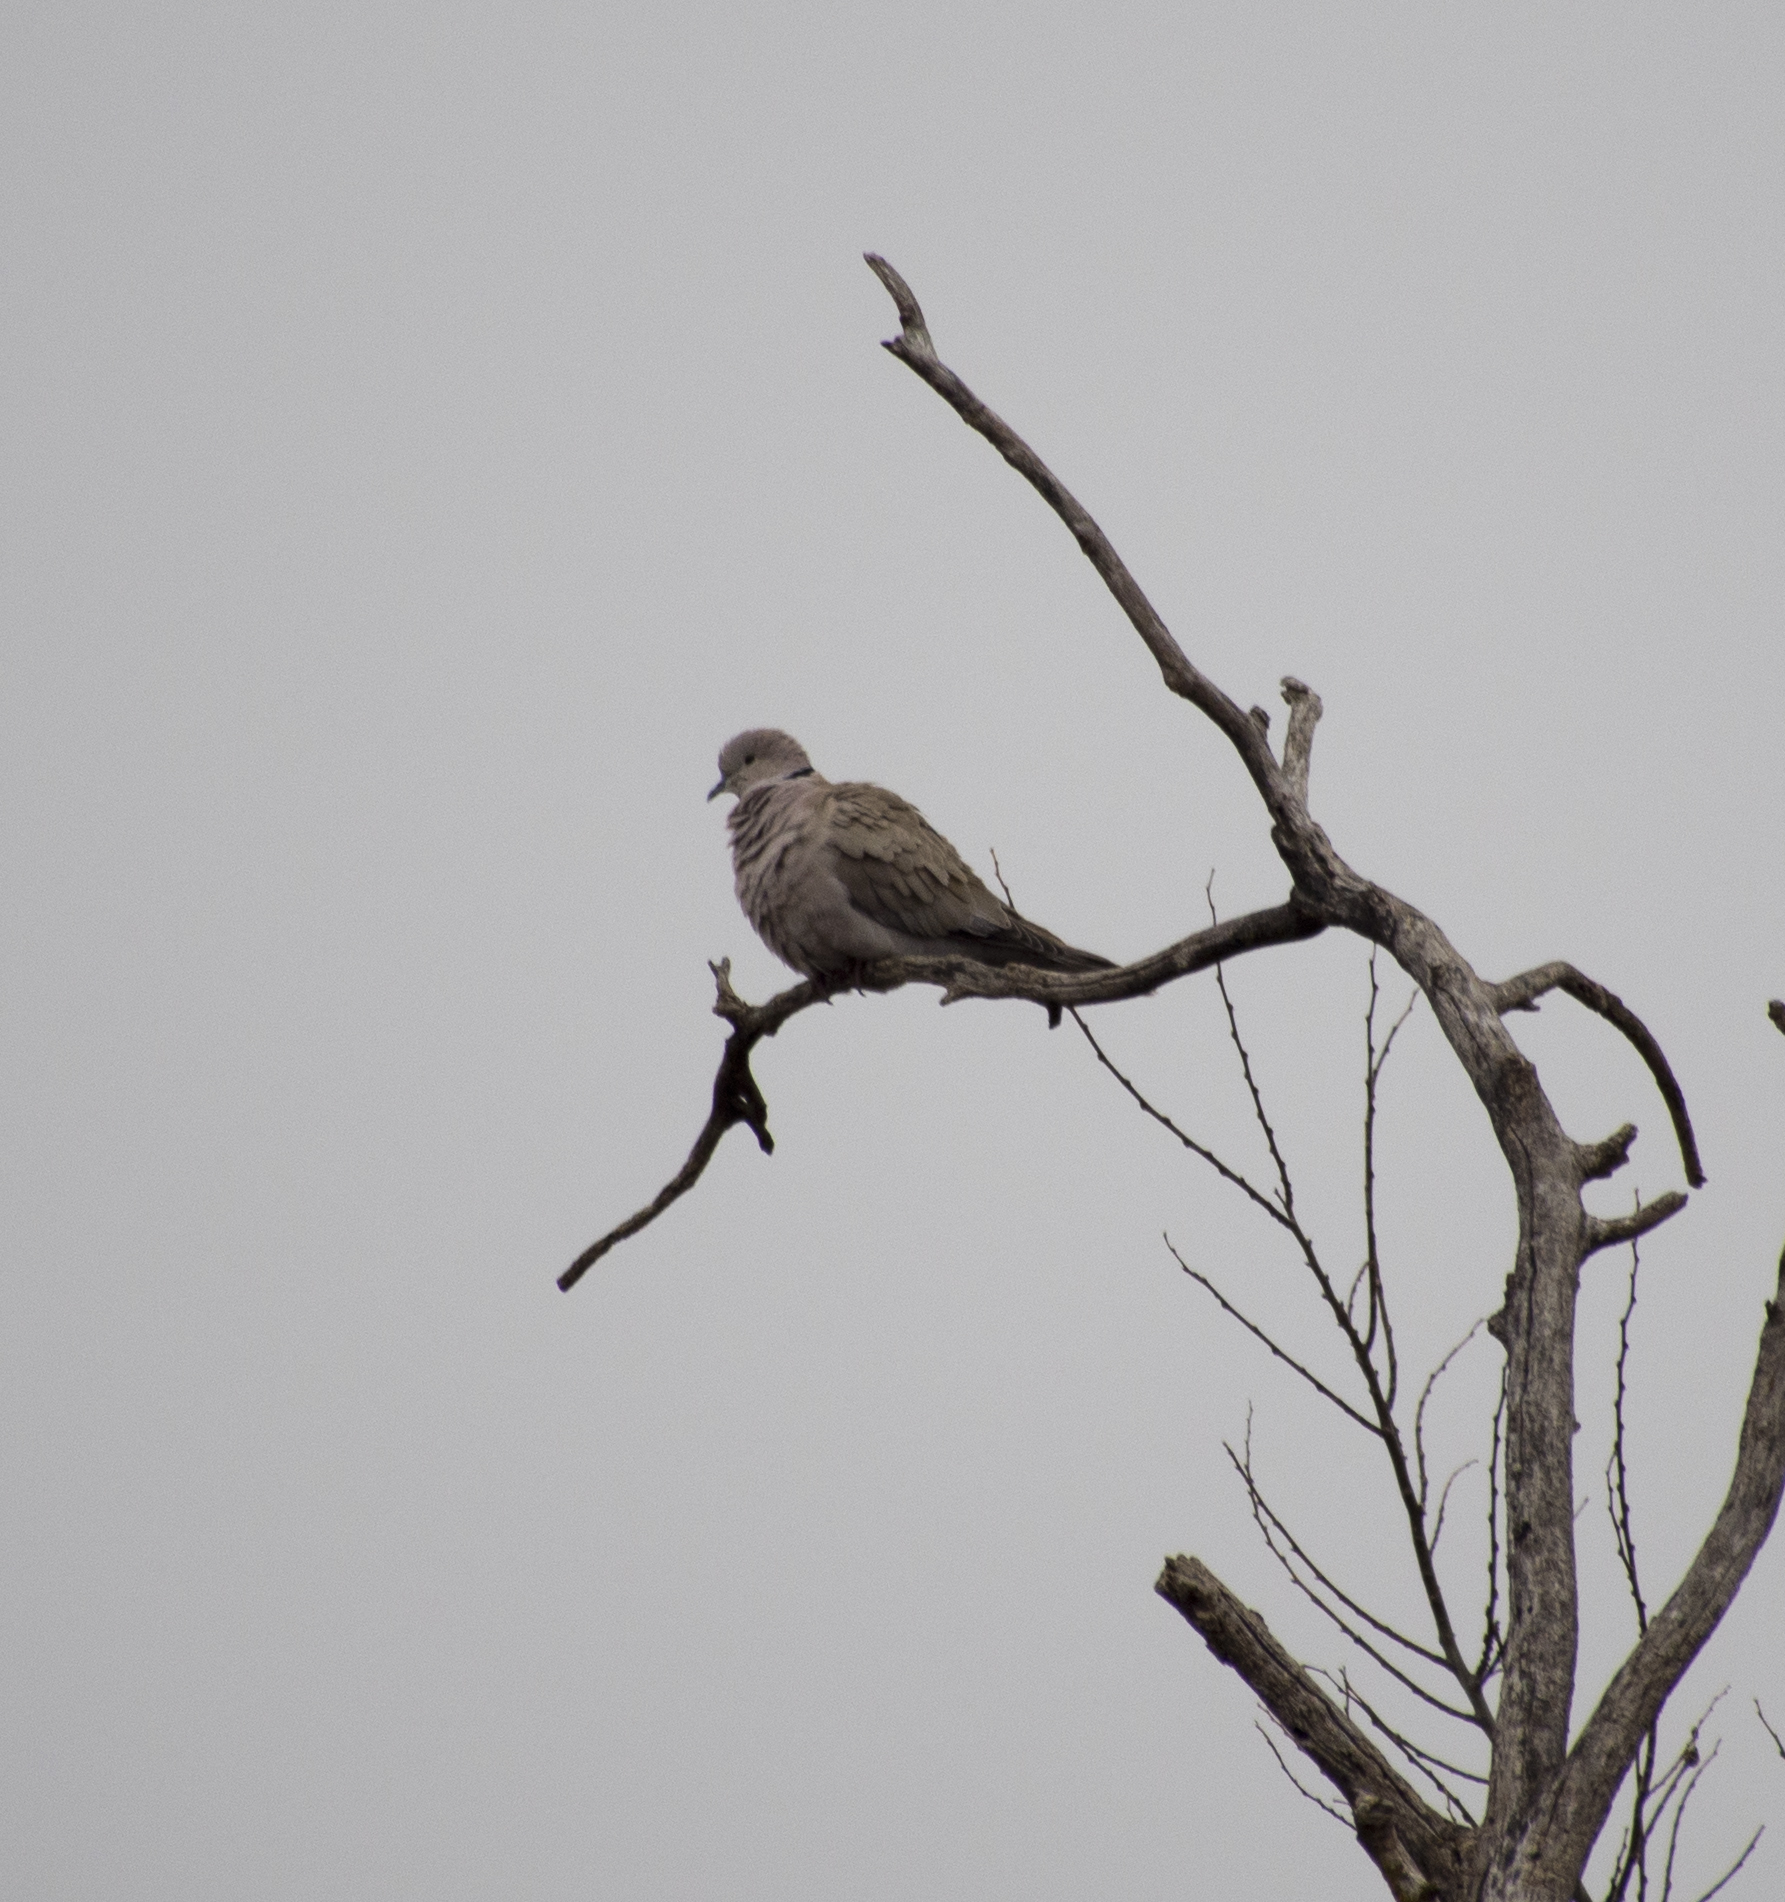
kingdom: Animalia
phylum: Chordata
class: Aves
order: Columbiformes
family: Columbidae
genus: Streptopelia
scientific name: Streptopelia decaocto
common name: Eurasian collared dove
